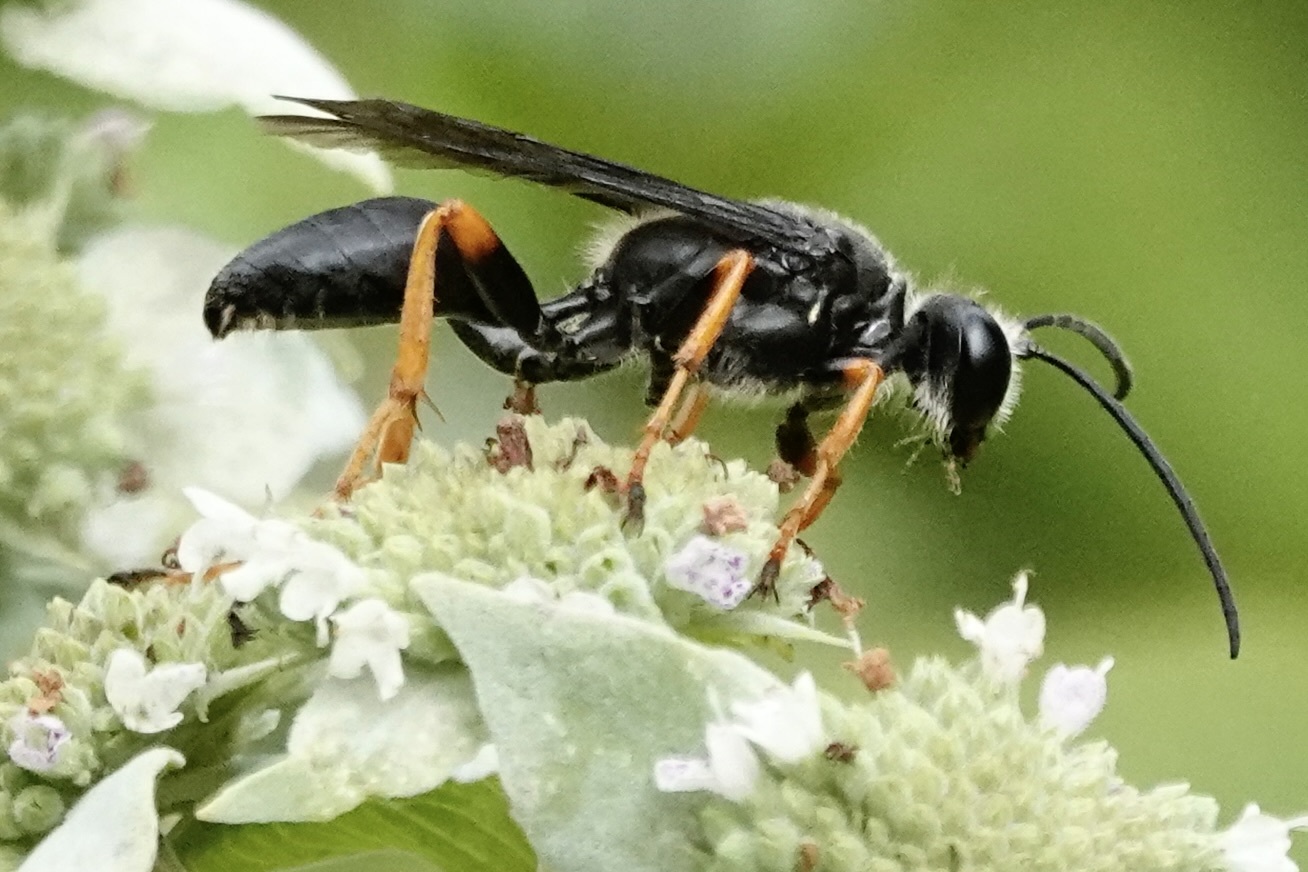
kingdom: Animalia
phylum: Arthropoda
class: Insecta
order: Hymenoptera
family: Sphecidae
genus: Sphex
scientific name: Sphex nudus
